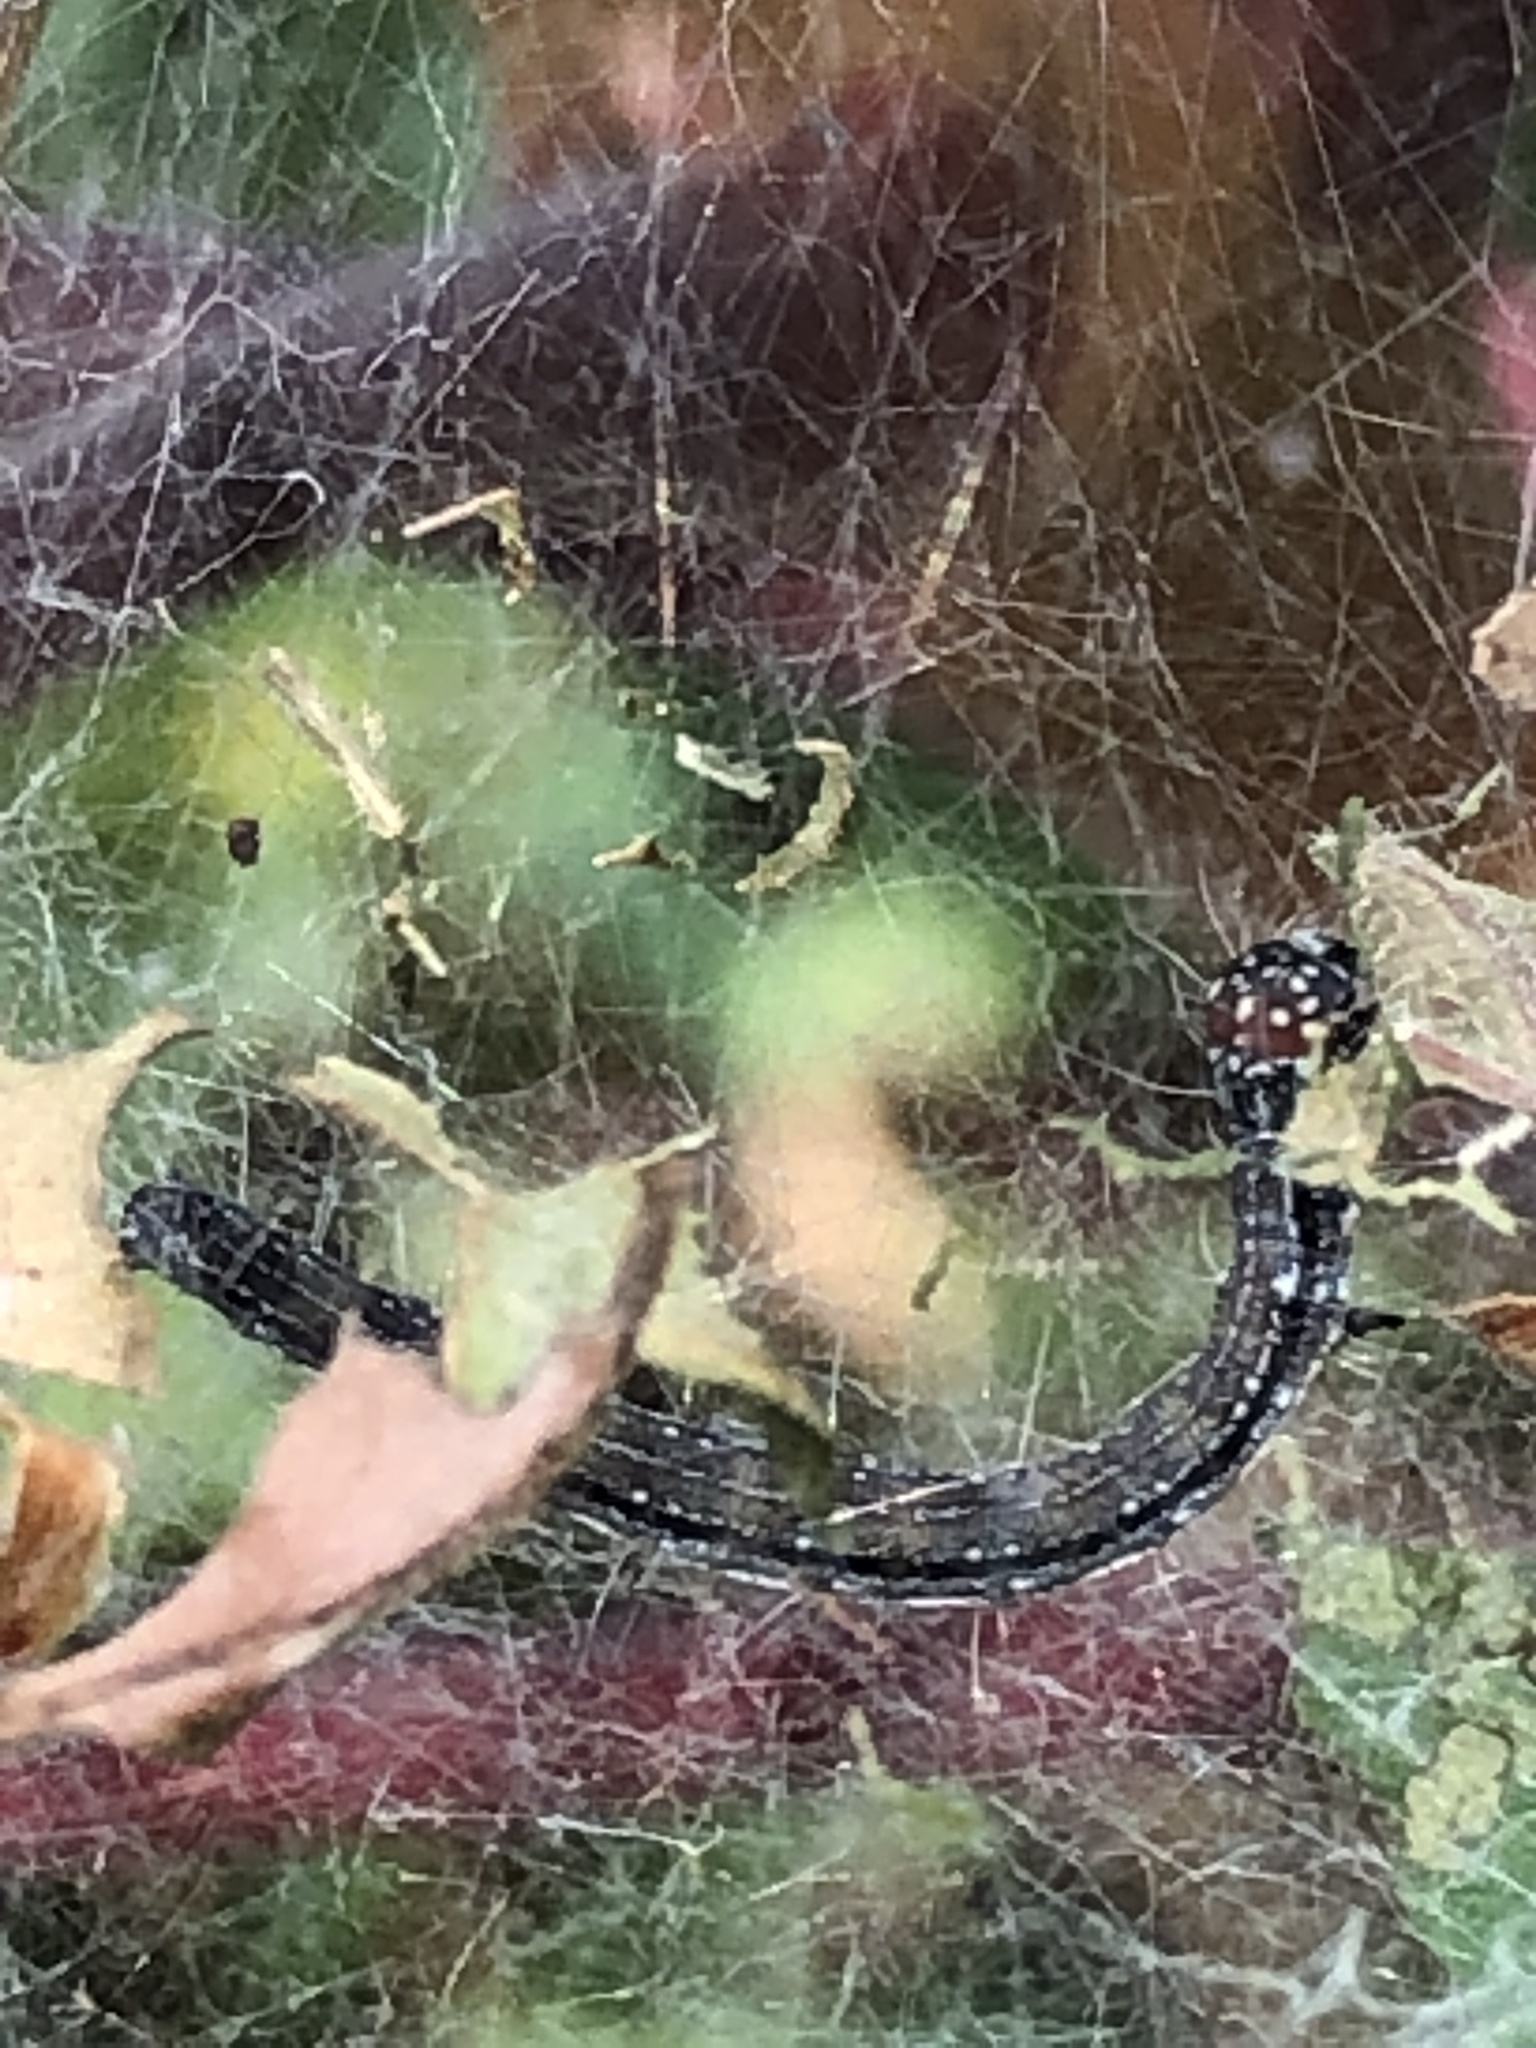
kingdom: Animalia
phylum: Arthropoda
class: Insecta
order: Lepidoptera
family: Attevidae
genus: Atteva
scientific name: Atteva punctella
